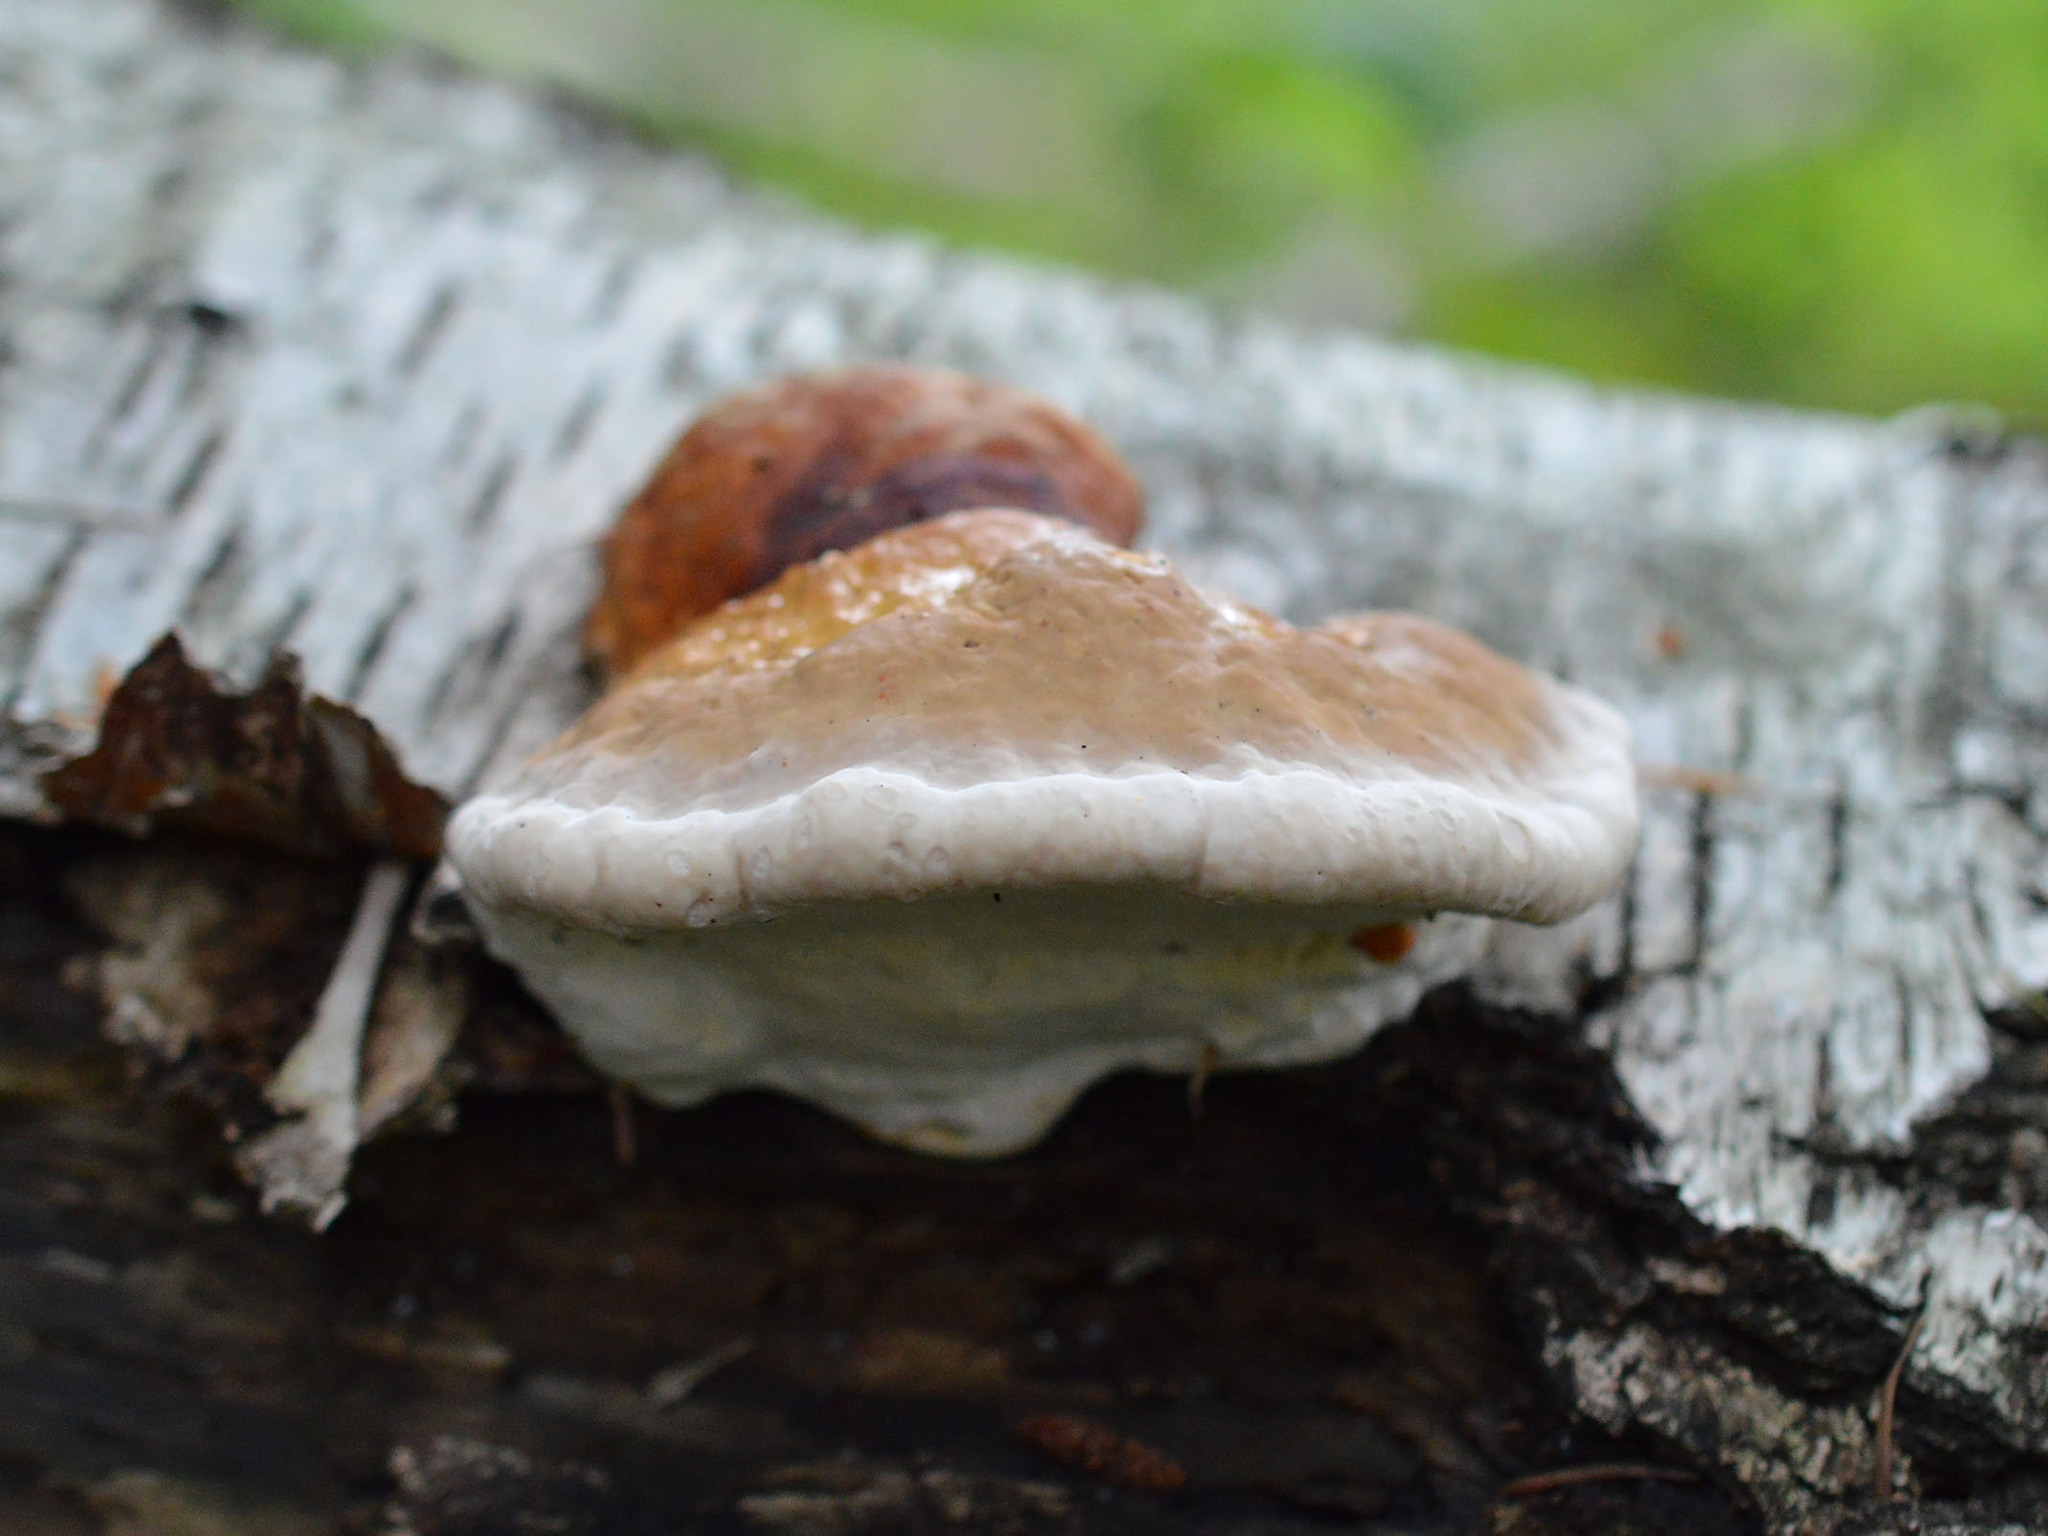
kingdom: Fungi
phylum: Basidiomycota
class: Agaricomycetes
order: Polyporales
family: Fomitopsidaceae
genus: Fomitopsis
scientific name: Fomitopsis pinicola
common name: Red-belted bracket
